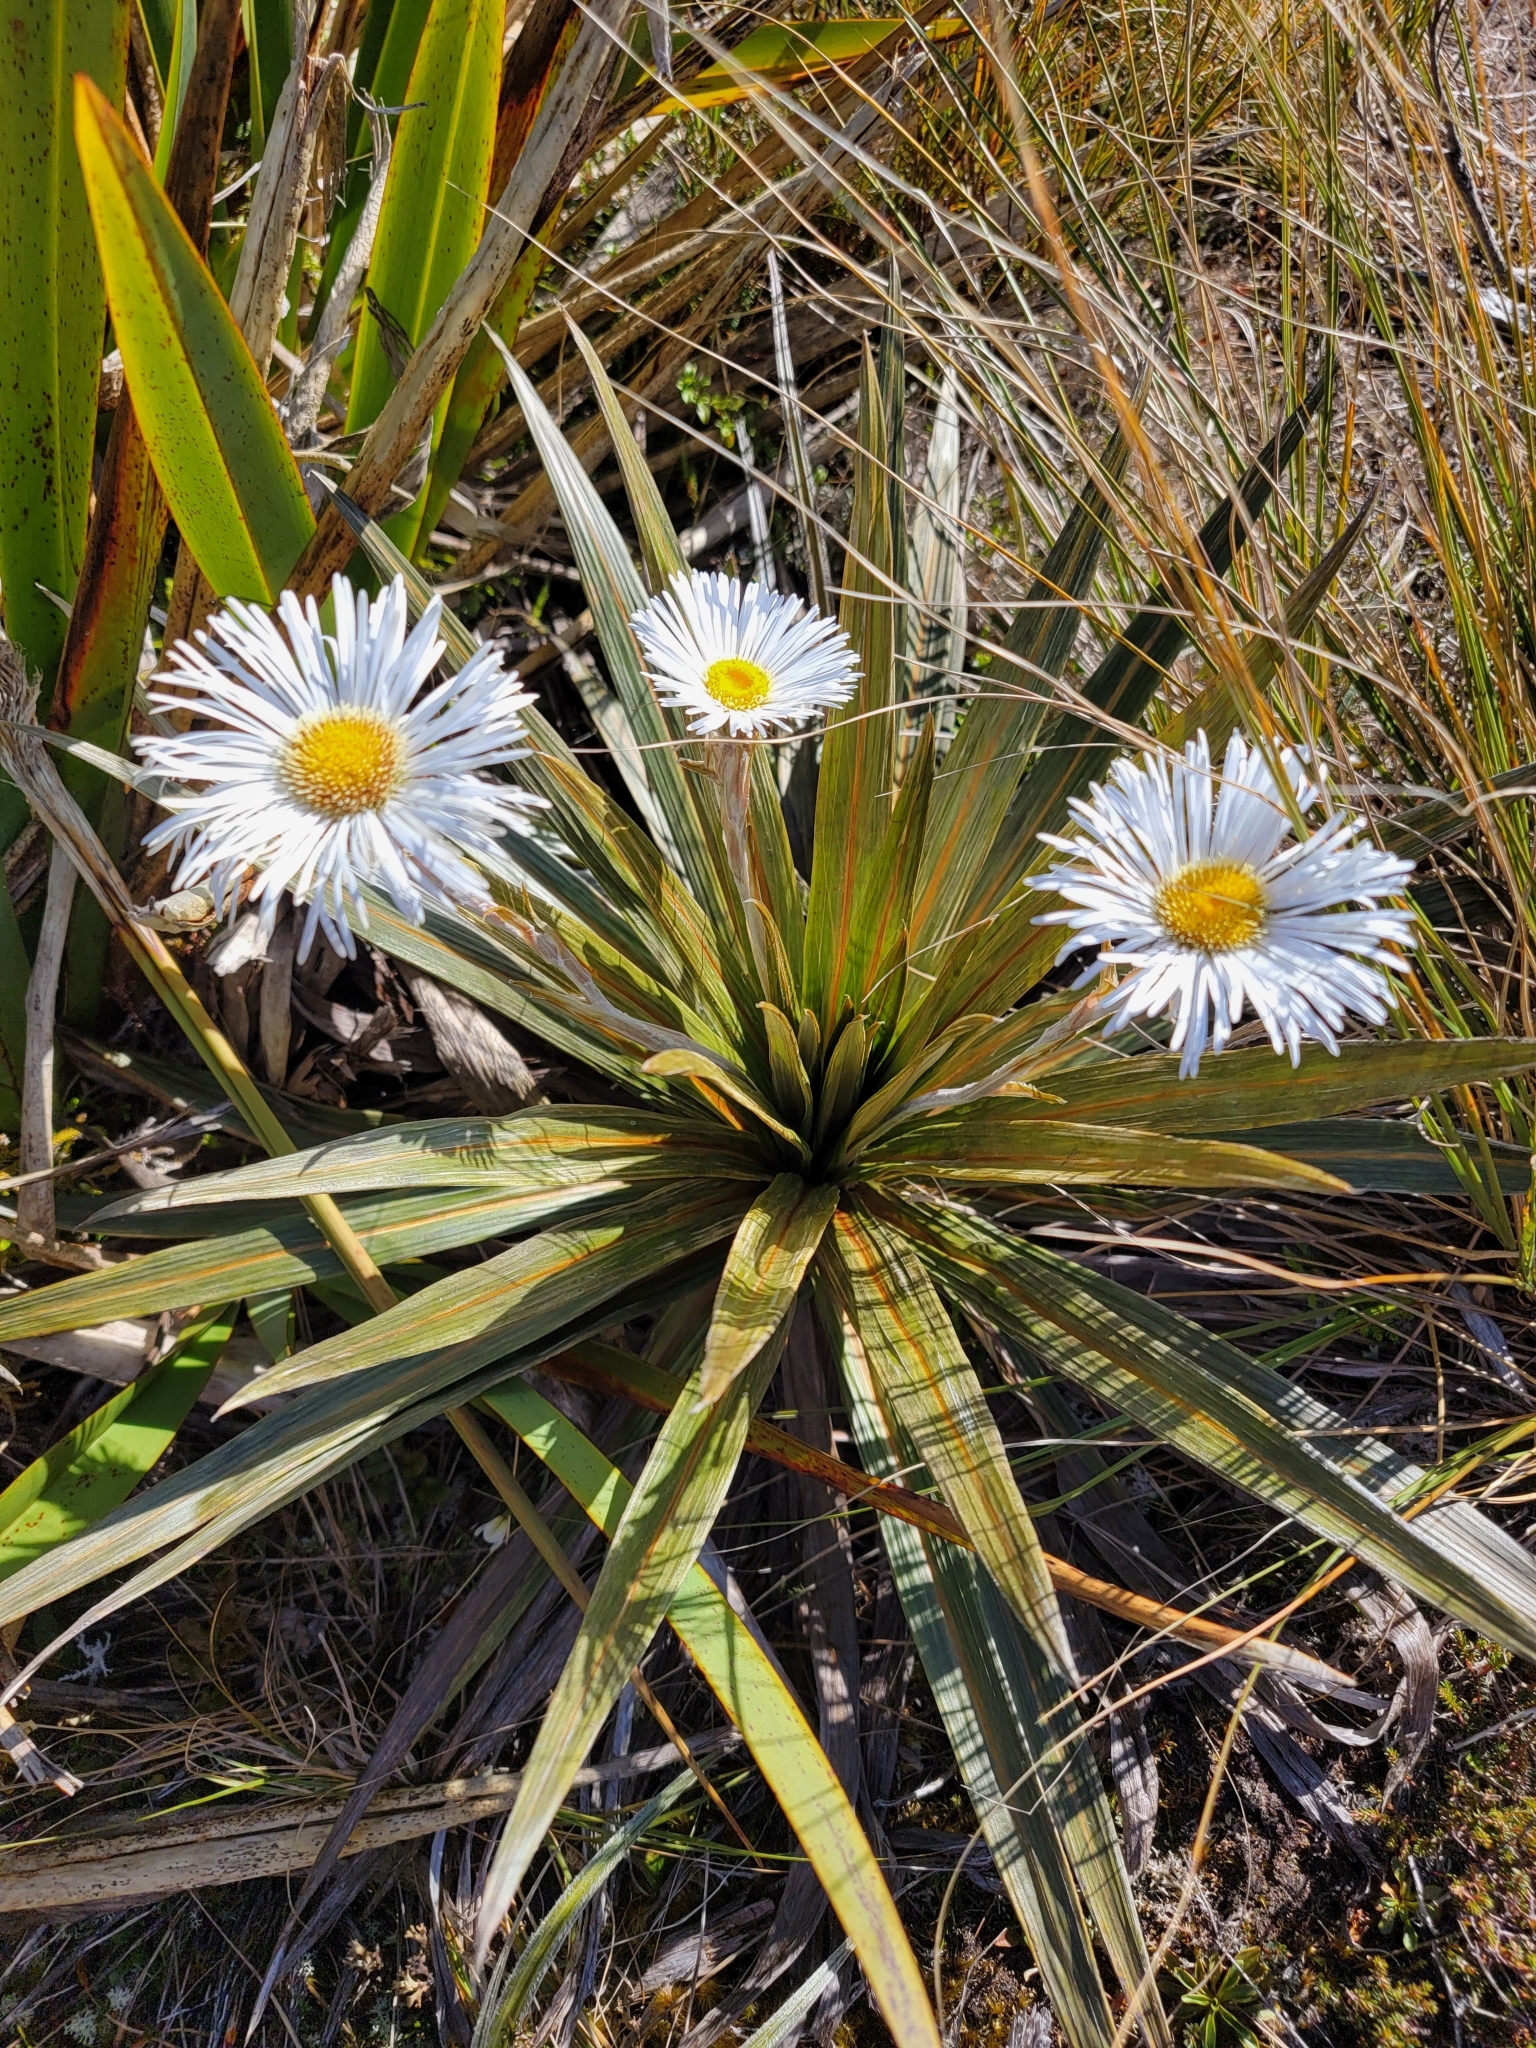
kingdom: Plantae
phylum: Tracheophyta
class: Magnoliopsida
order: Asterales
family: Asteraceae
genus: Celmisia
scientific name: Celmisia coriacea
